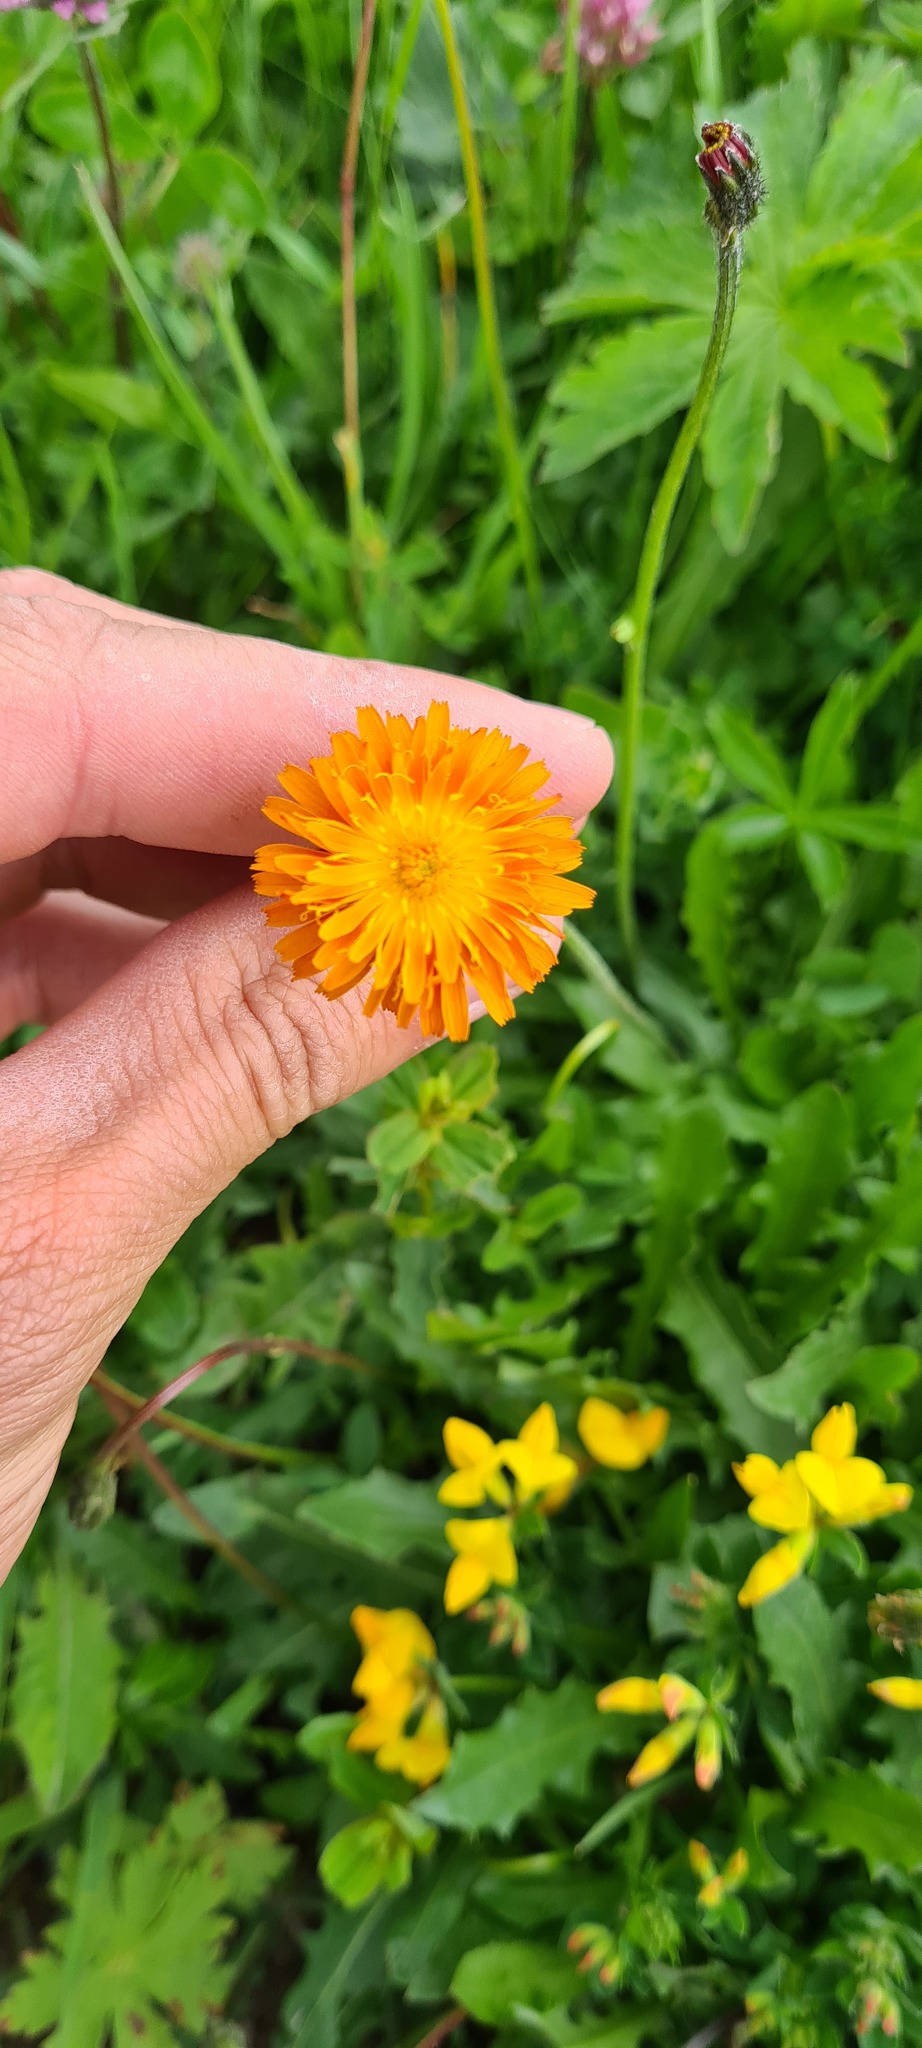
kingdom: Plantae
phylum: Tracheophyta
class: Magnoliopsida
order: Asterales
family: Asteraceae
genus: Crepis
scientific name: Crepis aurea
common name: Golden hawk's-beard
